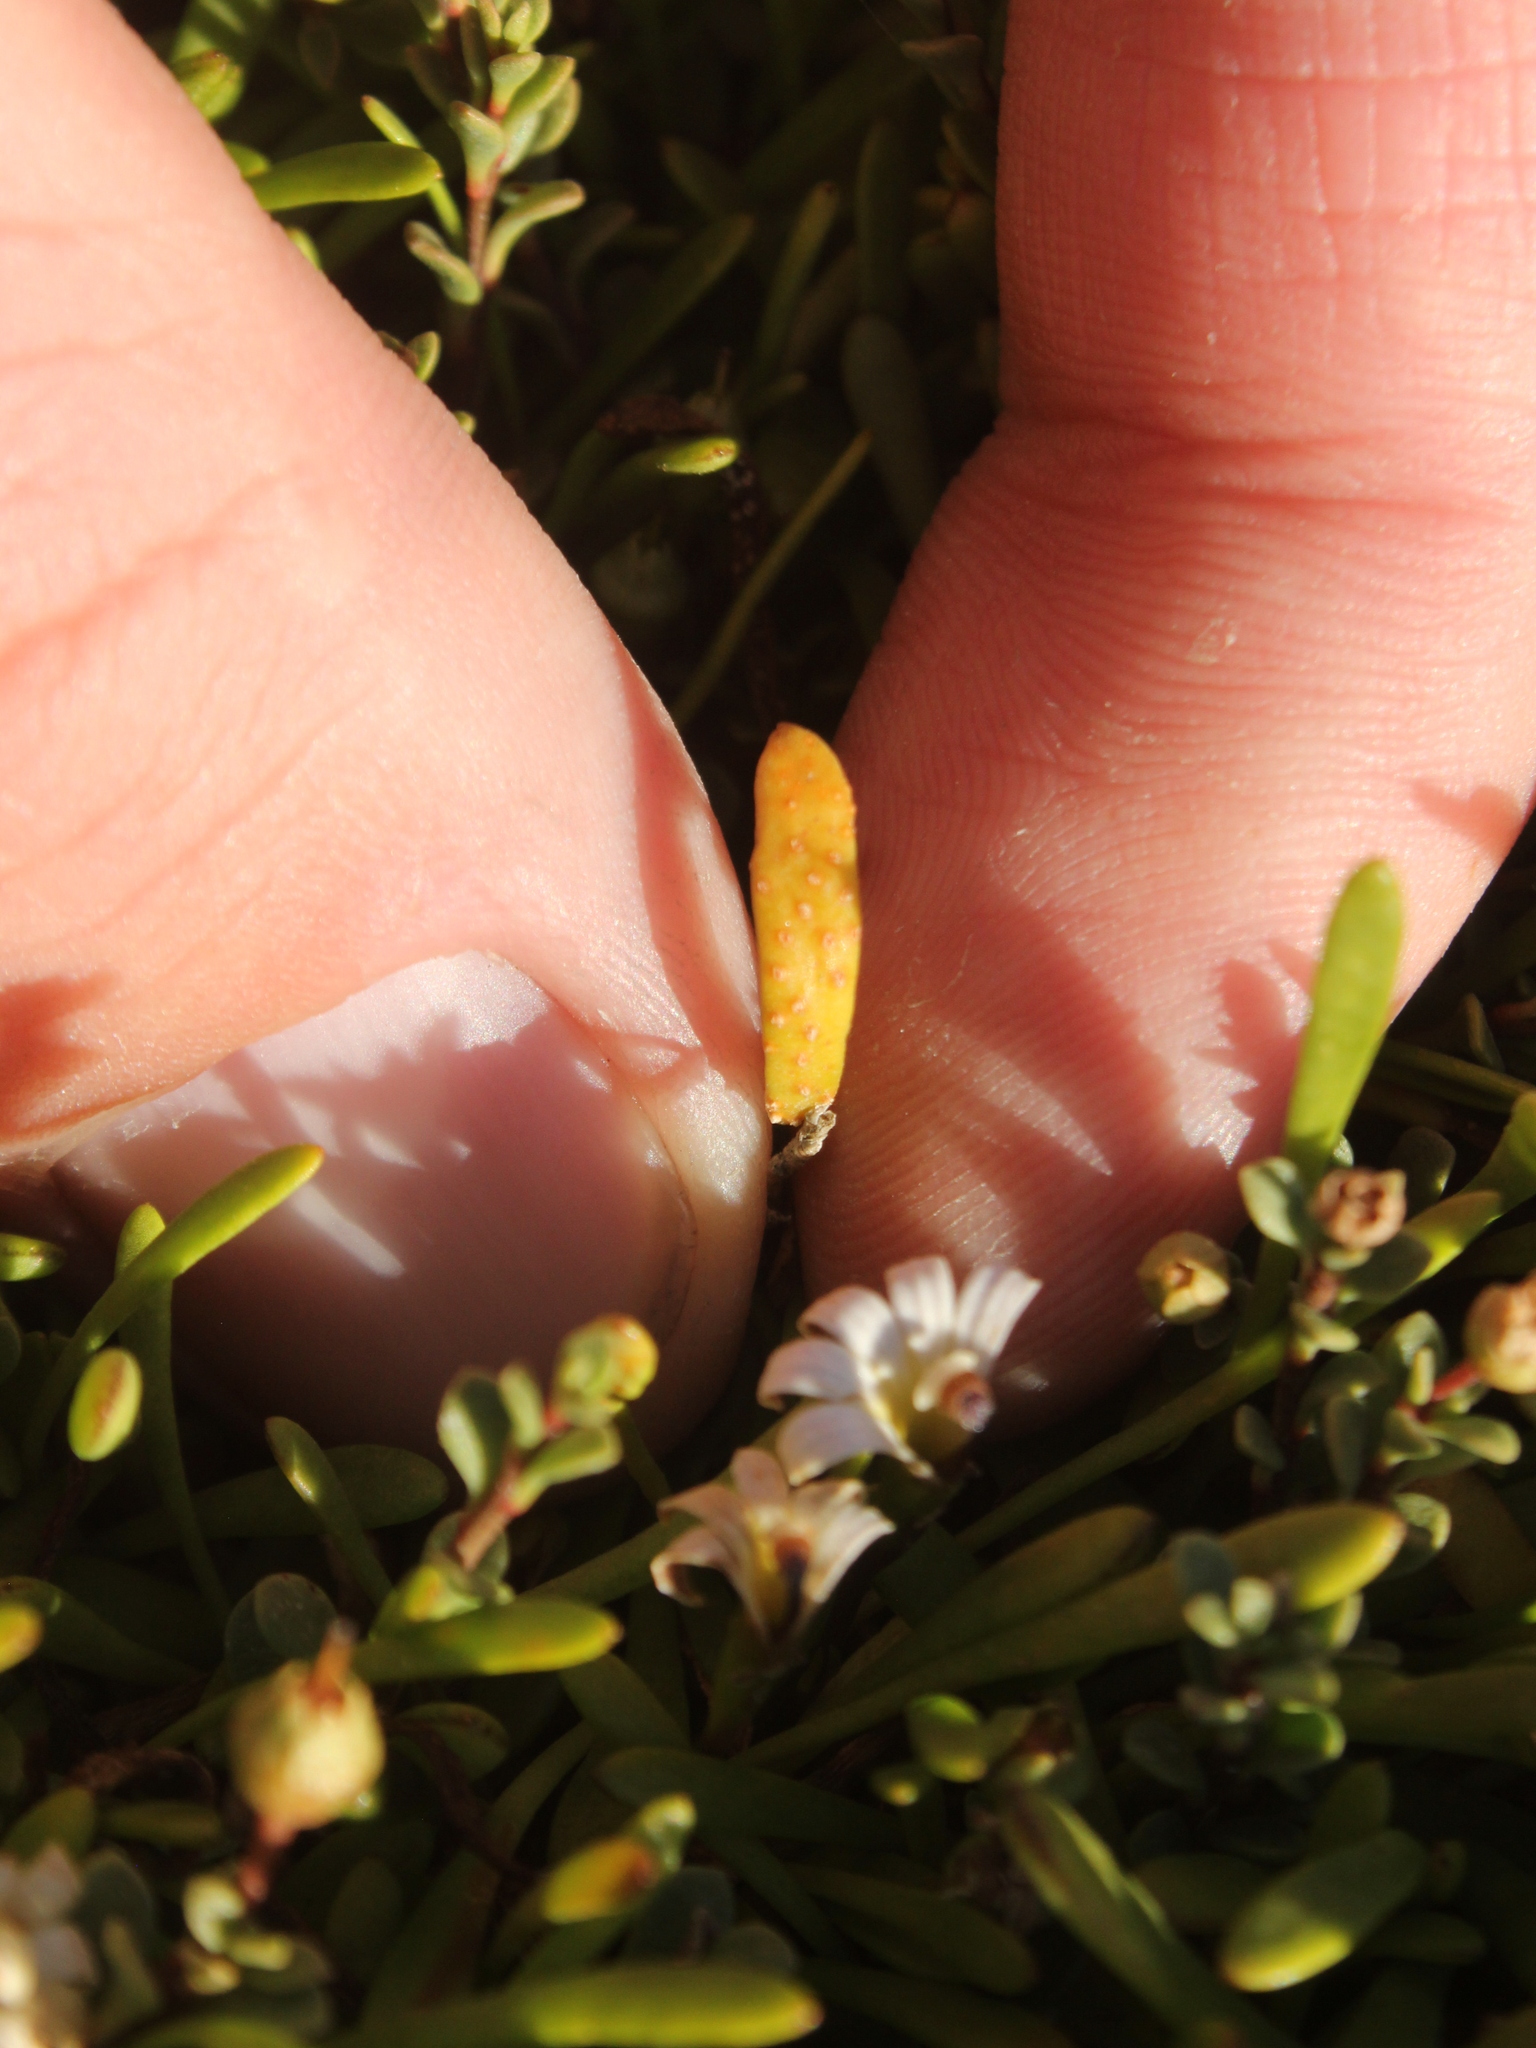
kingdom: Fungi
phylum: Basidiomycota
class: Pucciniomycetes
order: Pucciniales
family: Pucciniaceae
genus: Uromyces
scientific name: Uromyces sellierae
